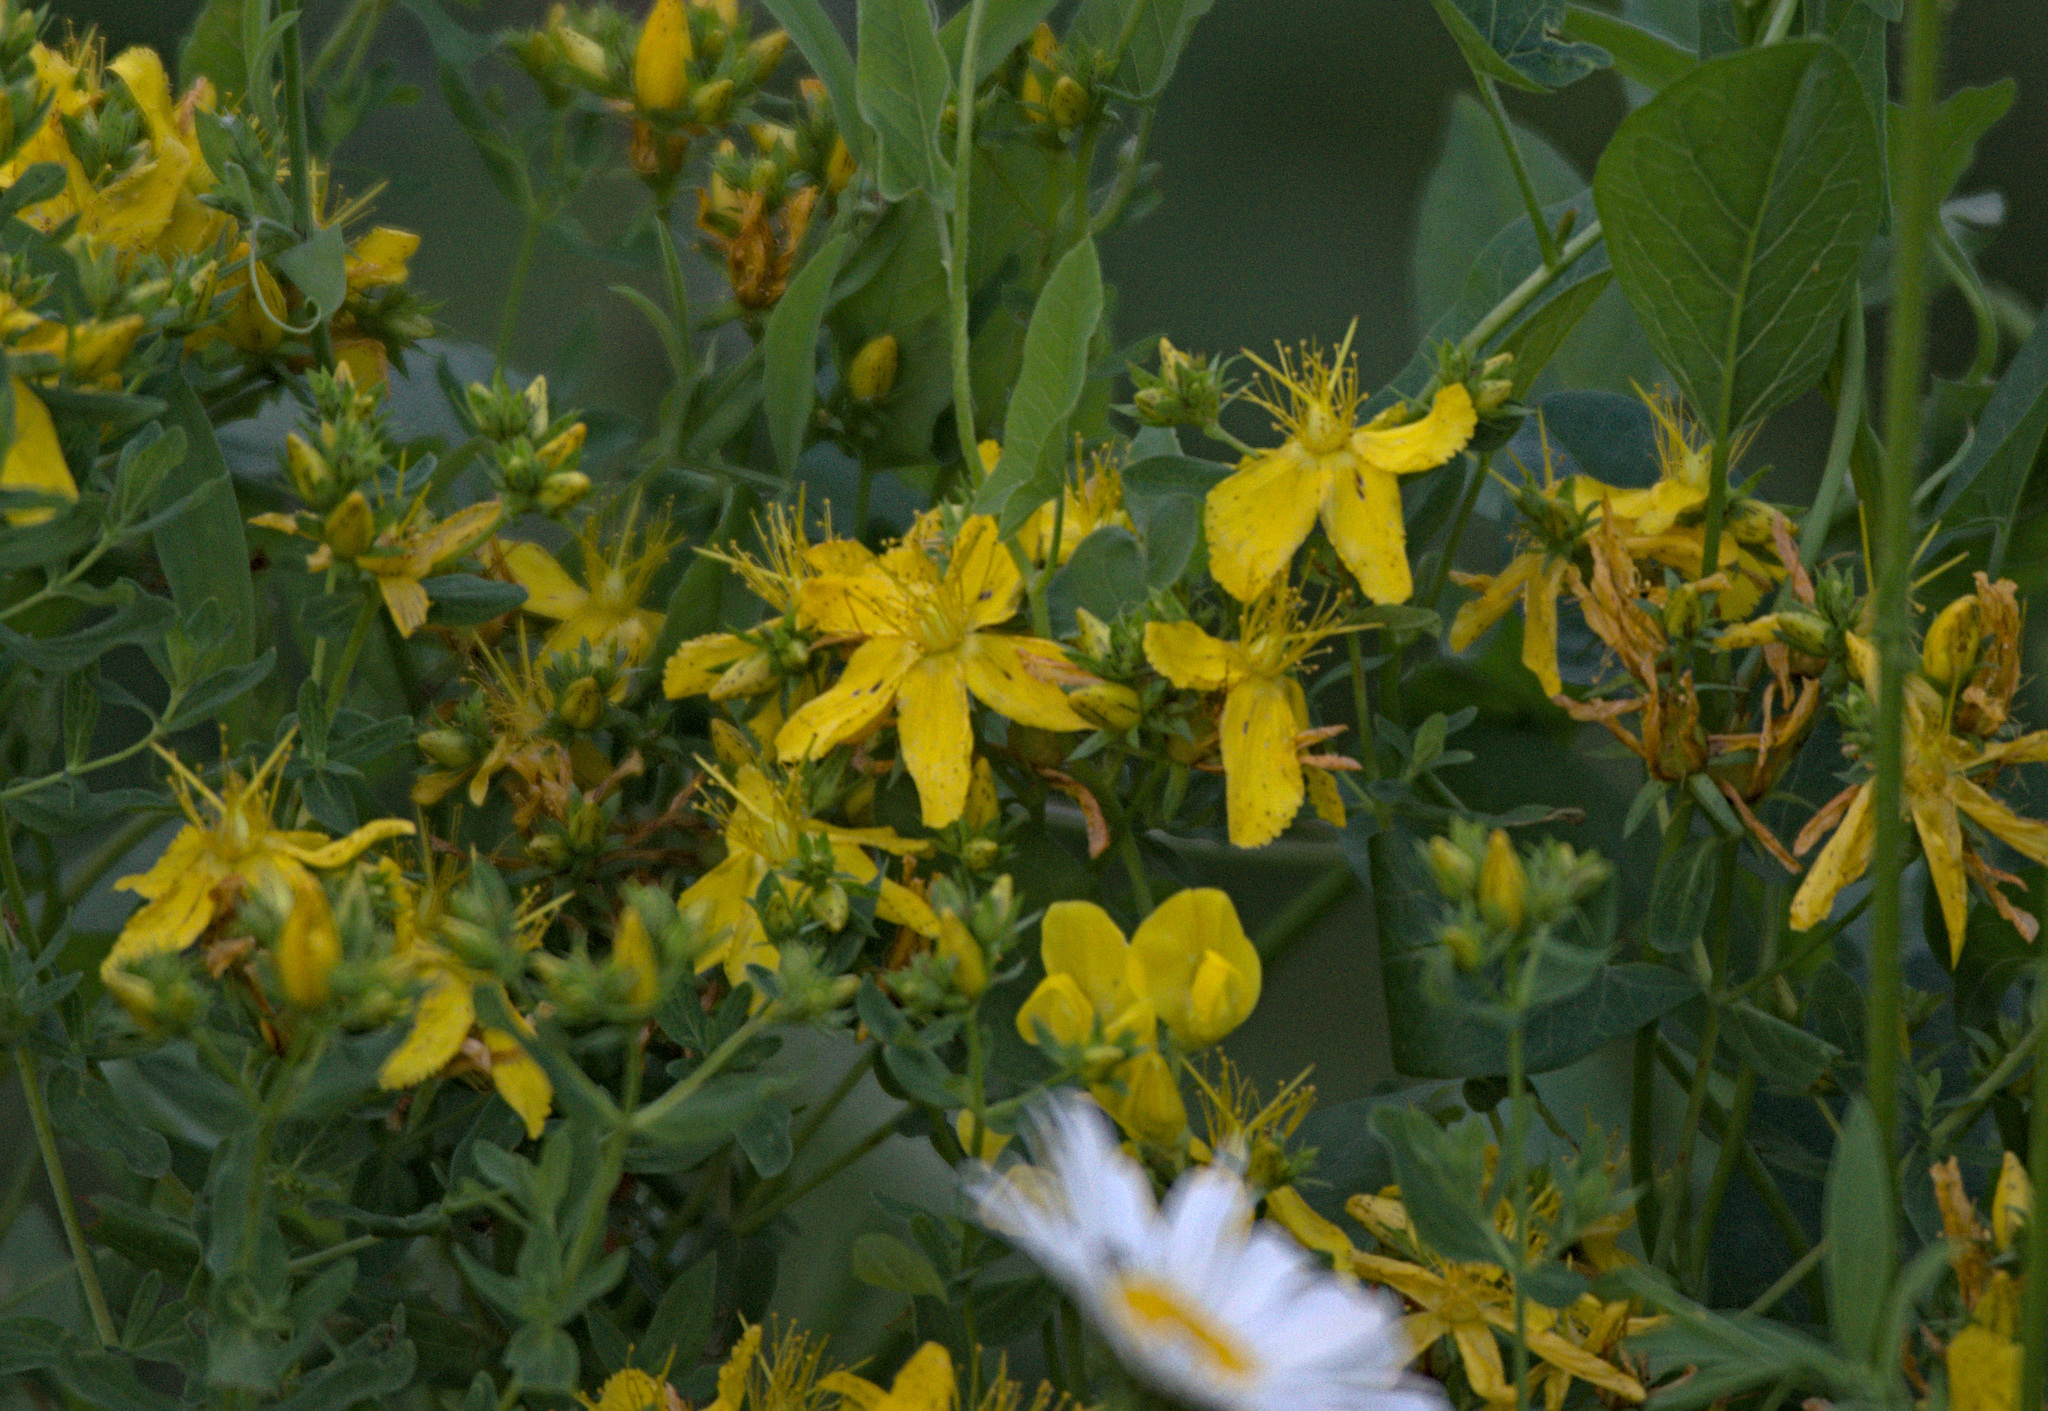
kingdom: Plantae
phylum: Tracheophyta
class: Magnoliopsida
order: Malpighiales
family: Hypericaceae
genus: Hypericum
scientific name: Hypericum perforatum
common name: Common st. johnswort
